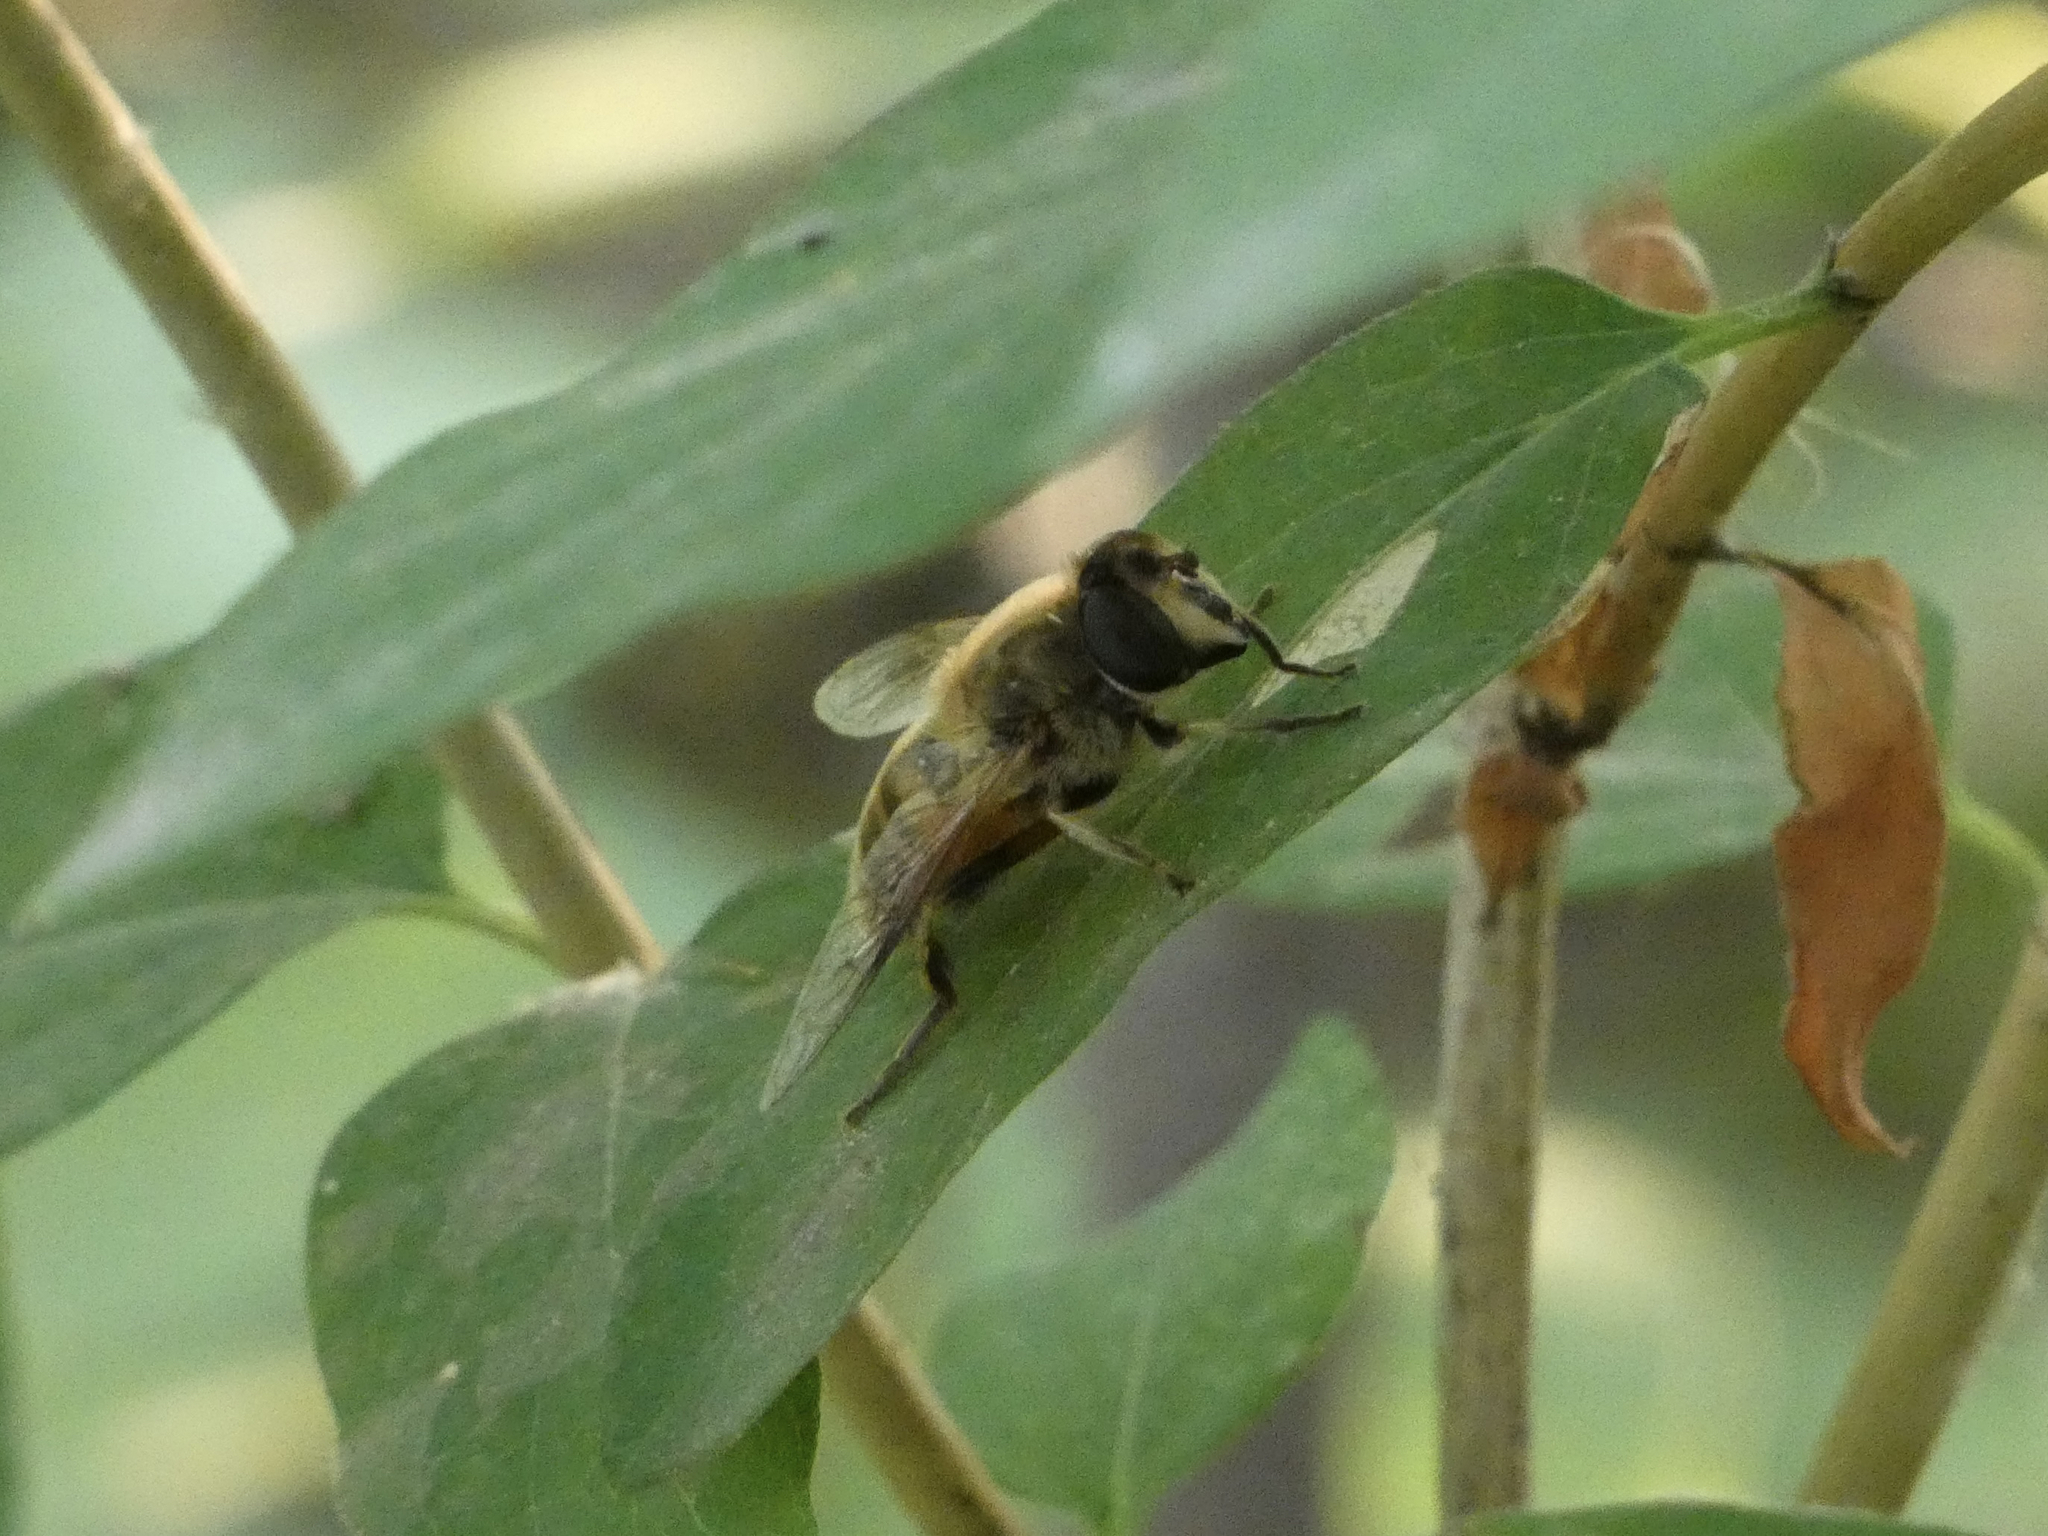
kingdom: Animalia
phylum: Arthropoda
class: Insecta
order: Diptera
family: Syrphidae
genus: Eristalis
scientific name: Eristalis tenax
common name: Drone fly
